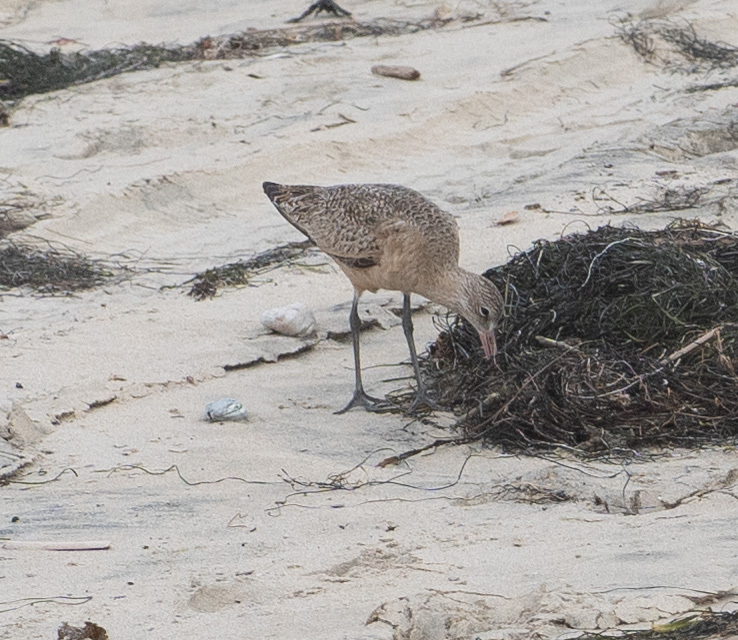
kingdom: Animalia
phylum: Chordata
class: Aves
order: Charadriiformes
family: Scolopacidae
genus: Limosa
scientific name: Limosa fedoa
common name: Marbled godwit
